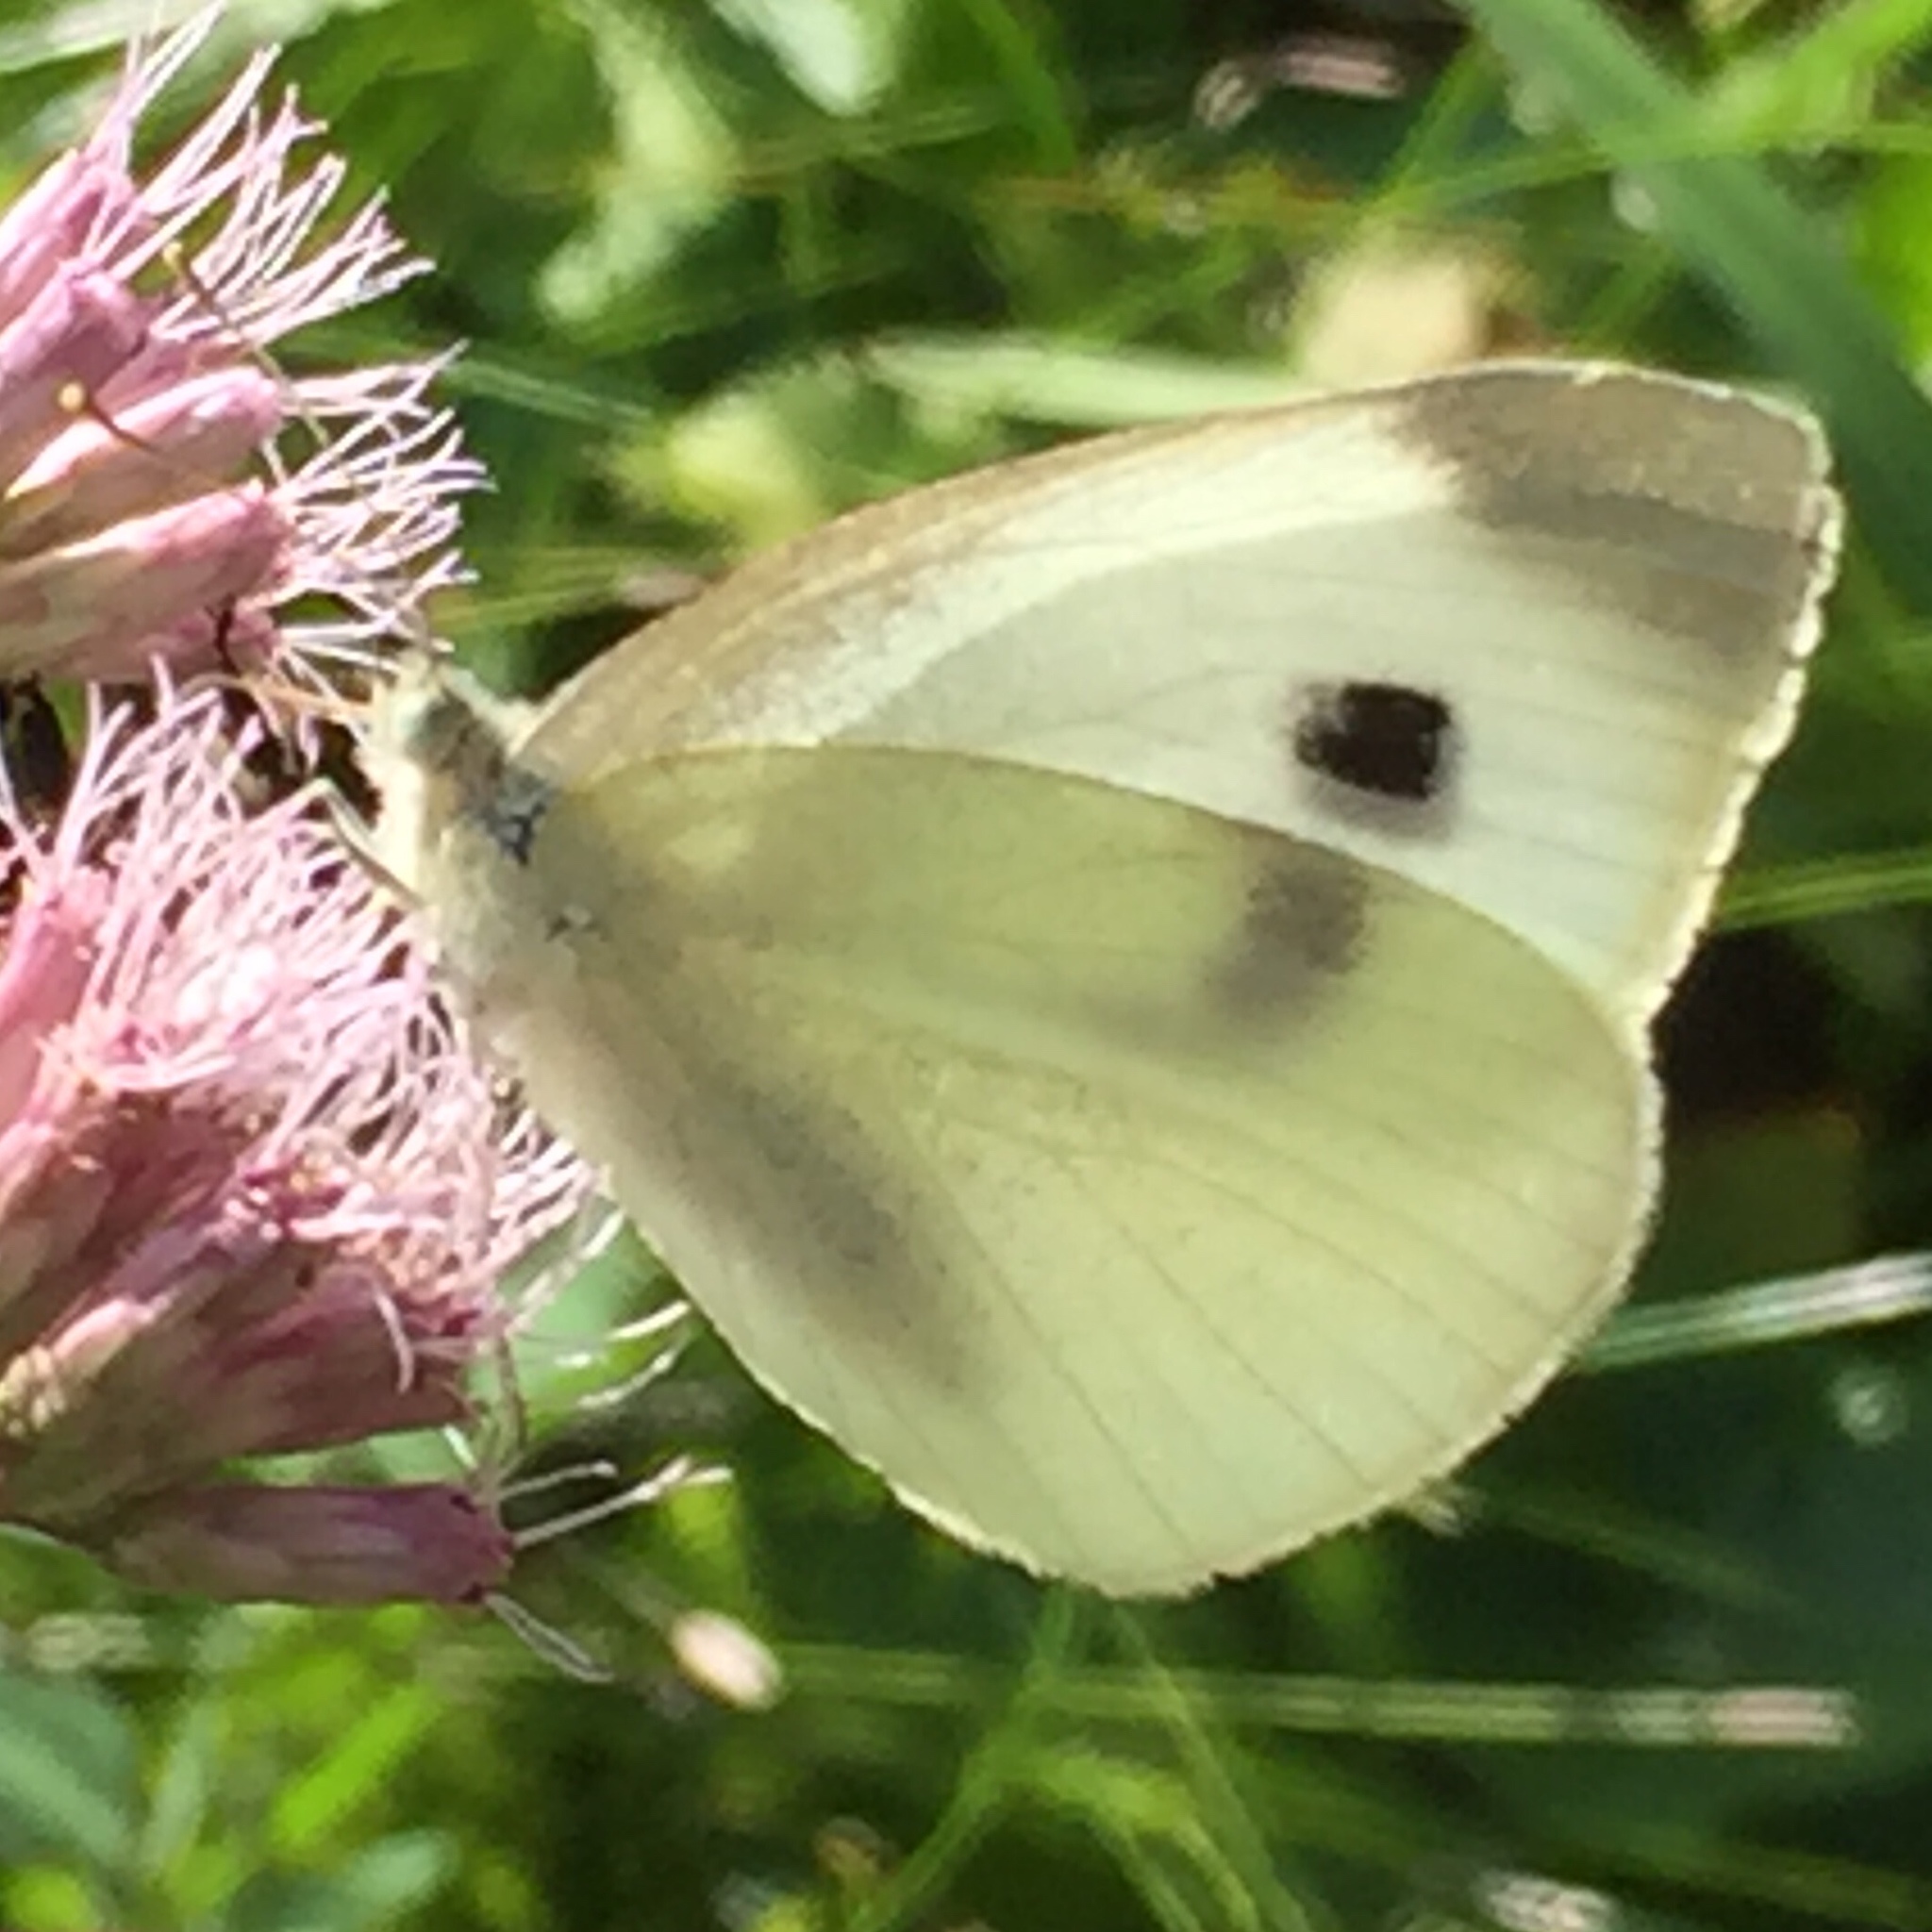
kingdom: Animalia
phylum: Arthropoda
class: Insecta
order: Lepidoptera
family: Pieridae
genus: Pieris
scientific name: Pieris rapae
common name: Small white
